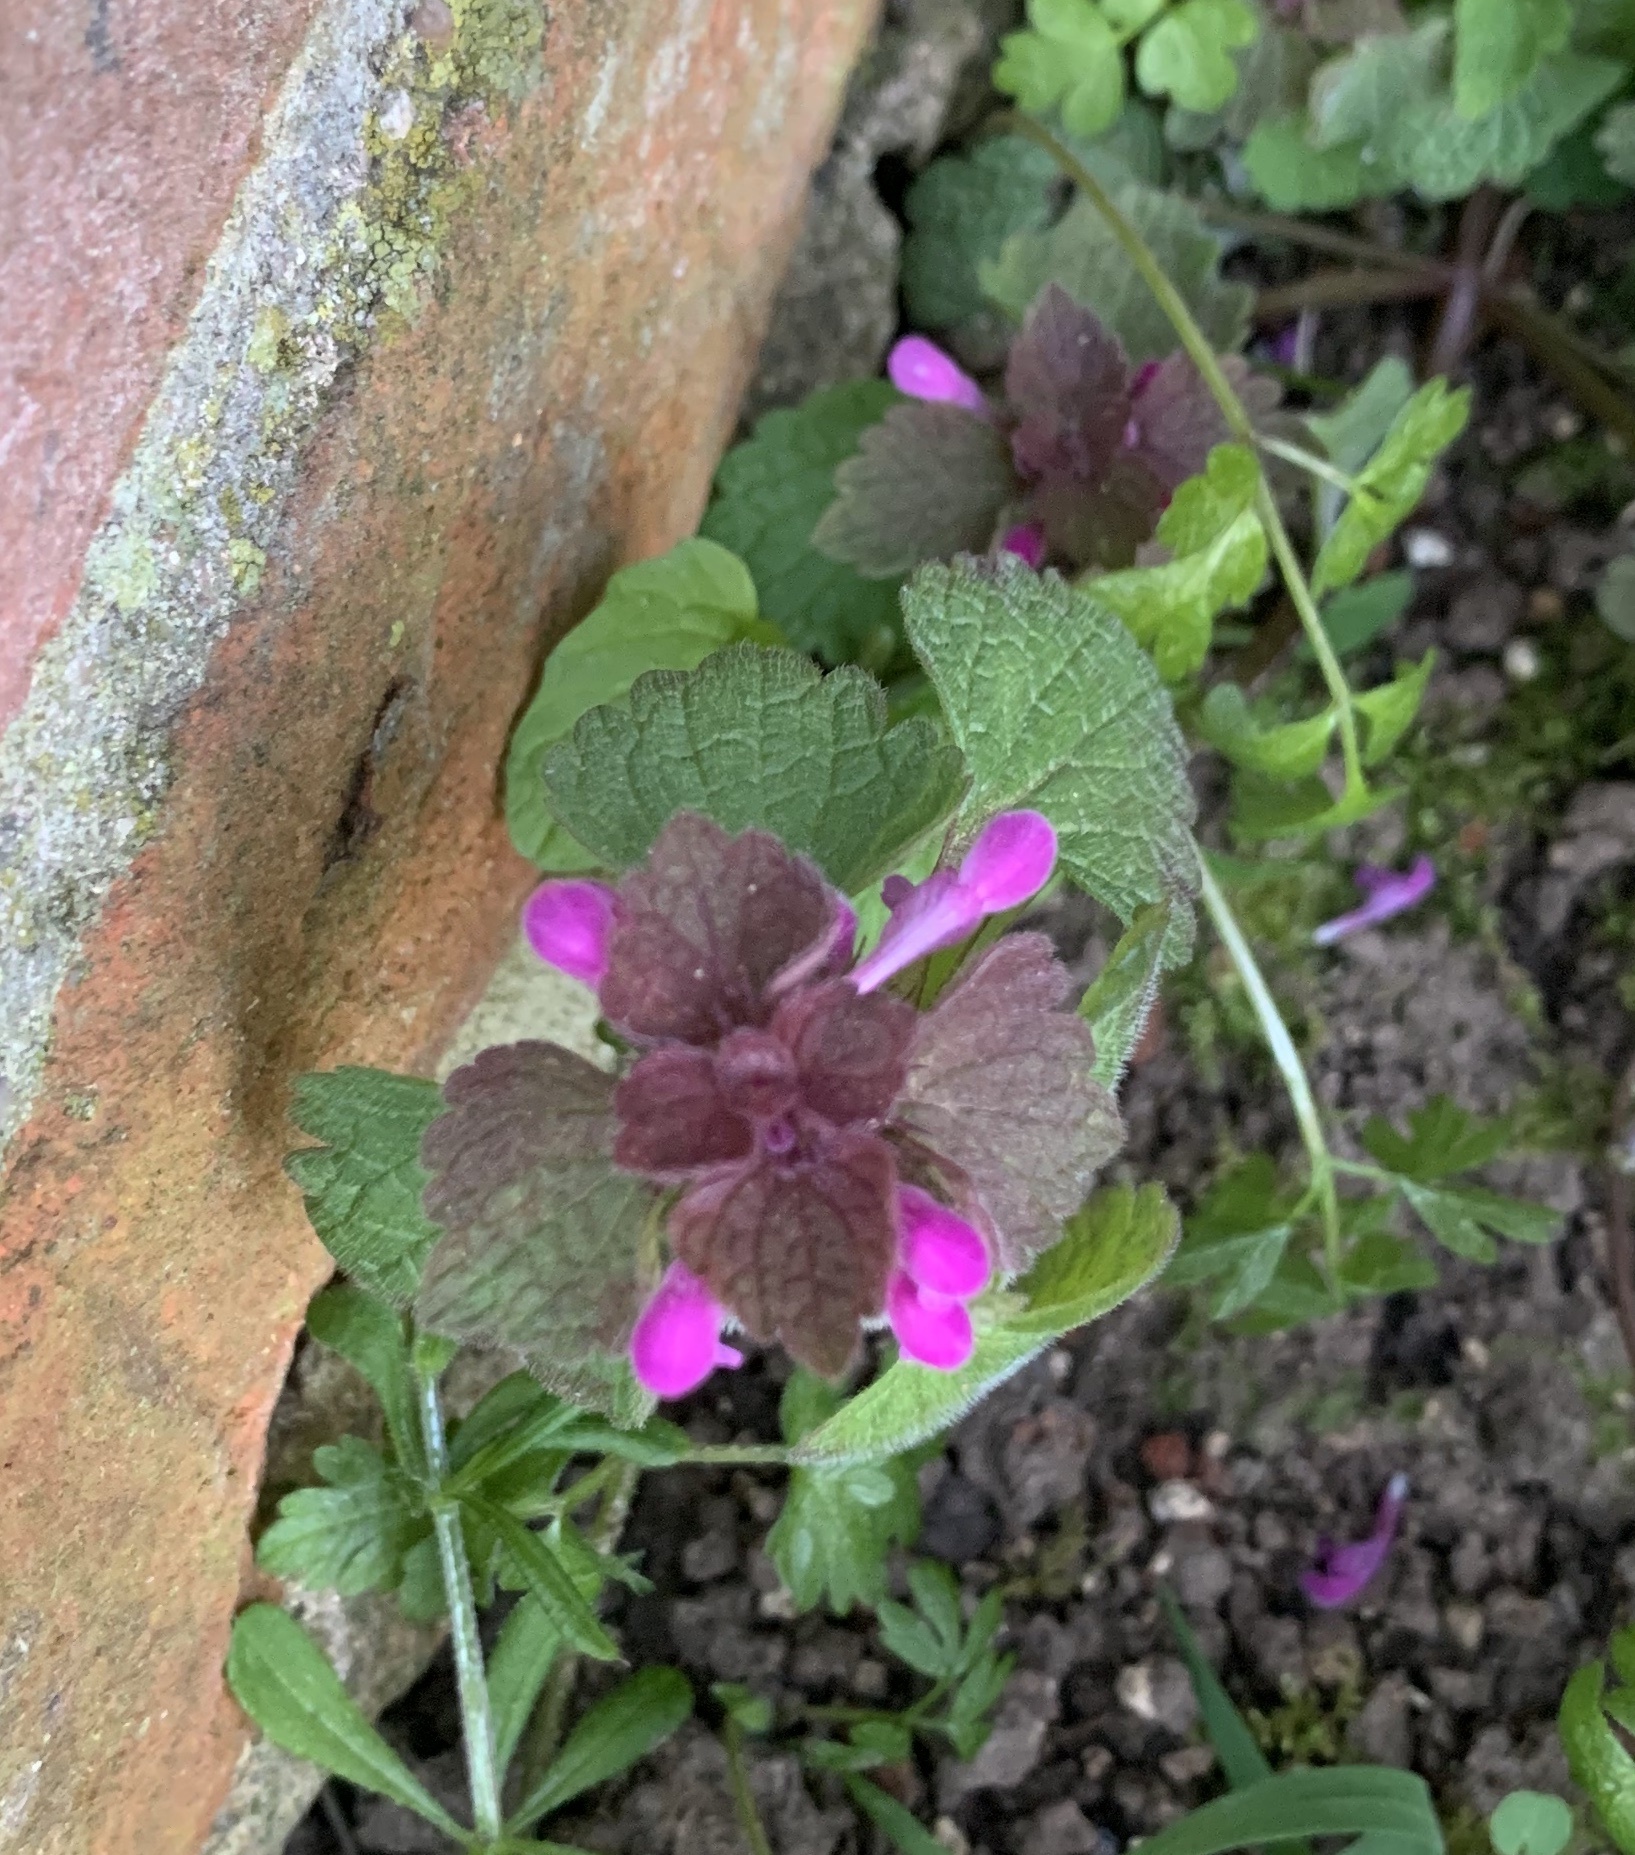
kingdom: Plantae
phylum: Tracheophyta
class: Magnoliopsida
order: Lamiales
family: Lamiaceae
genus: Lamium
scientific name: Lamium purpureum
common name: Red dead-nettle
